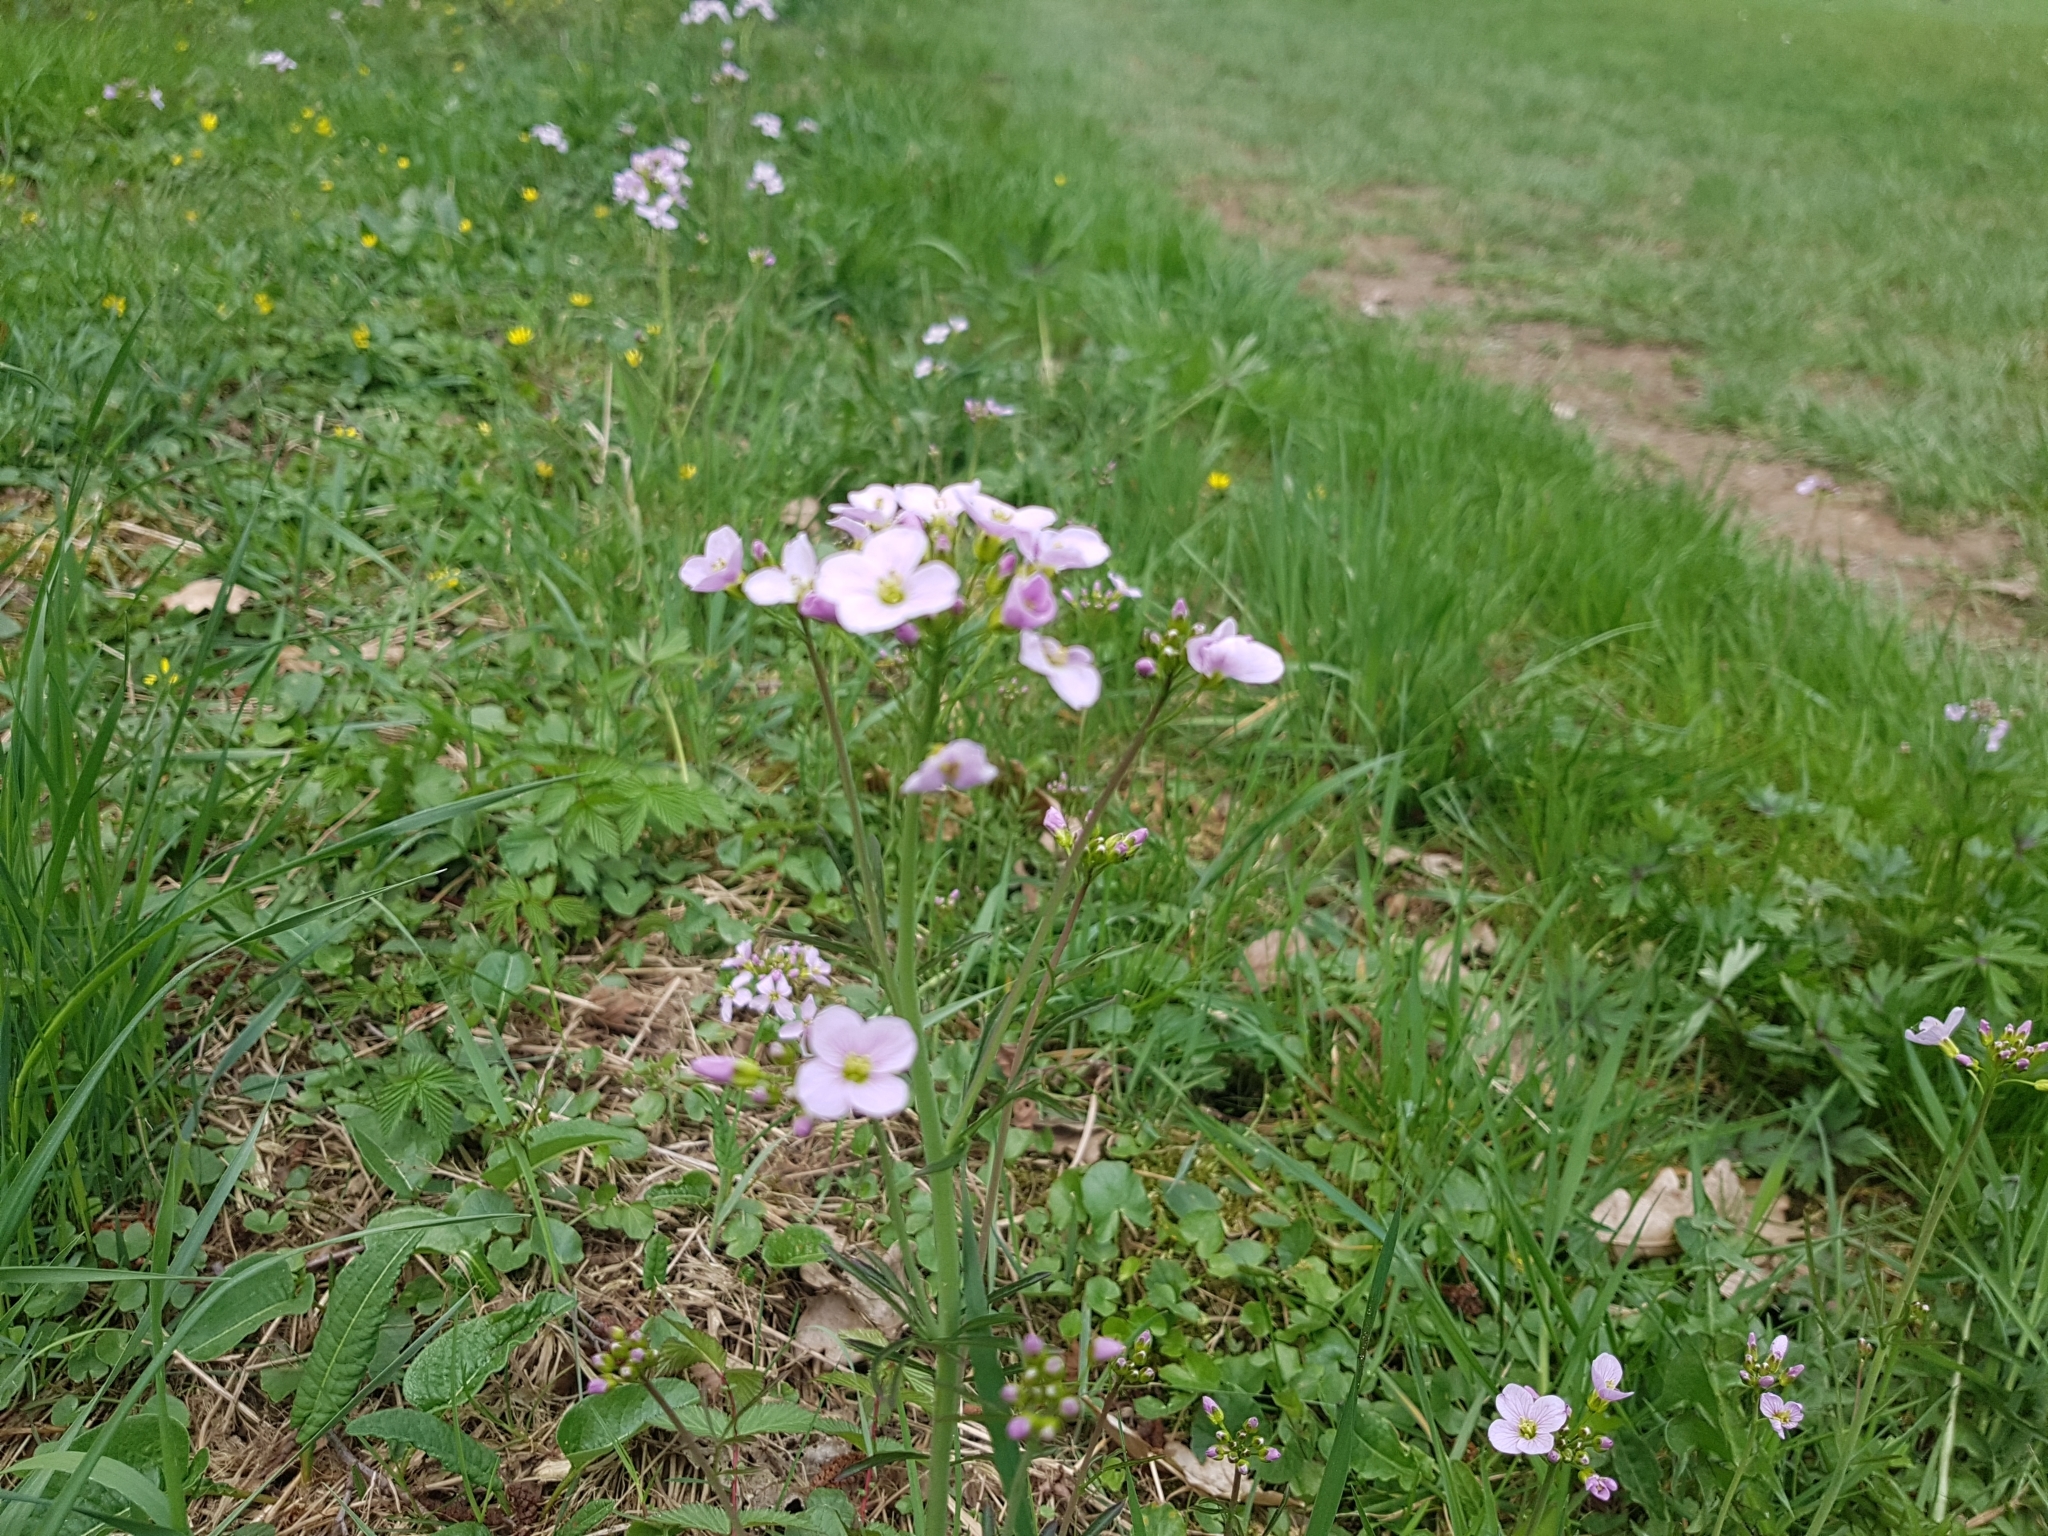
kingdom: Plantae
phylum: Tracheophyta
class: Magnoliopsida
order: Brassicales
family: Brassicaceae
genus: Cardamine
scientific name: Cardamine pratensis
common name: Cuckoo flower
